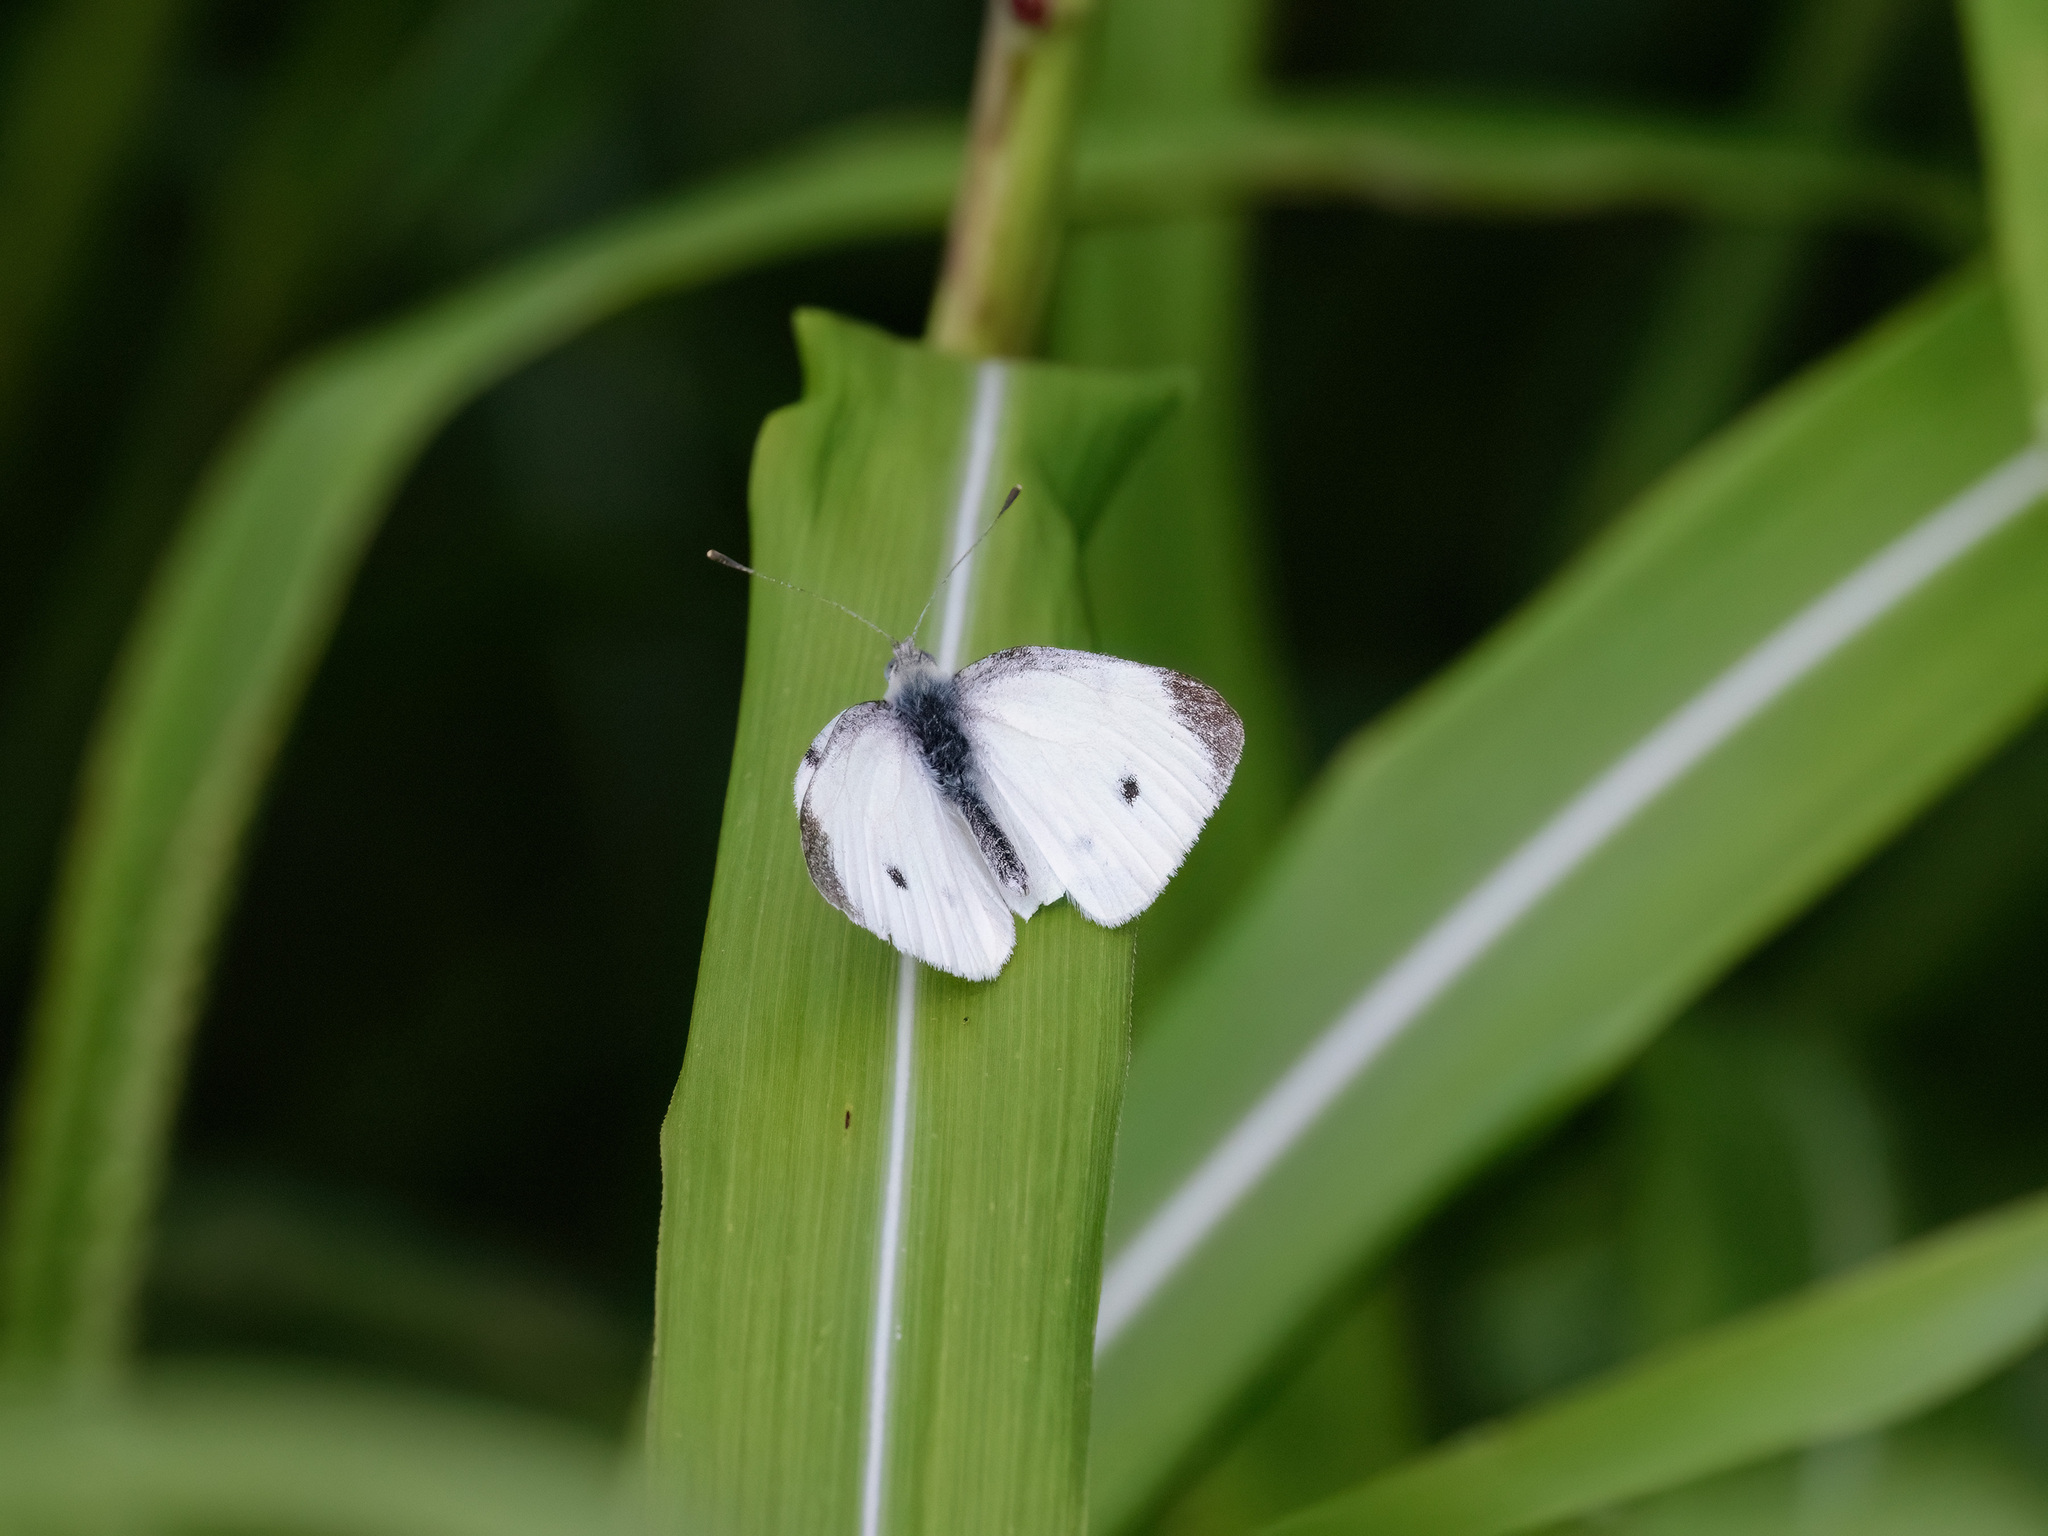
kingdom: Animalia
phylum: Arthropoda
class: Insecta
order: Lepidoptera
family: Pieridae
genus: Pieris
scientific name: Pieris rapae
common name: Small white
